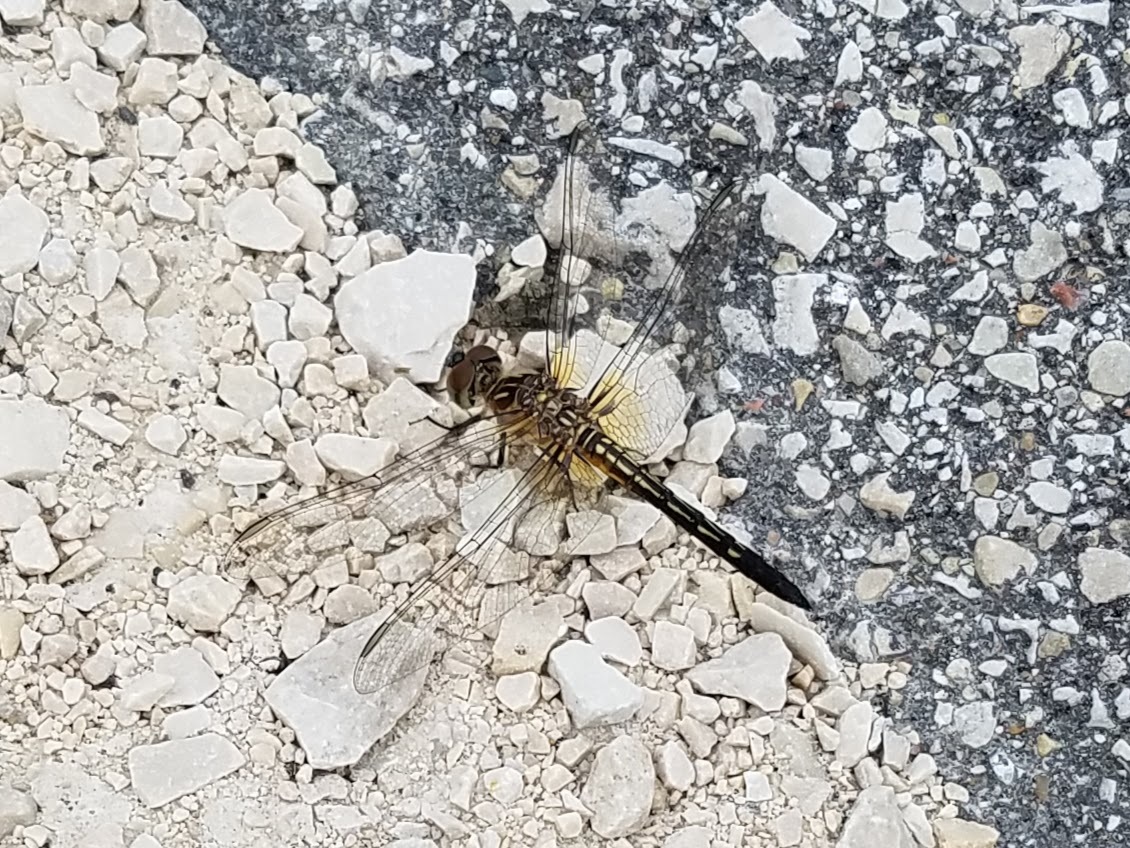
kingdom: Animalia
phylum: Arthropoda
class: Insecta
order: Odonata
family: Libellulidae
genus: Pachydiplax
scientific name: Pachydiplax longipennis
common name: Blue dasher
